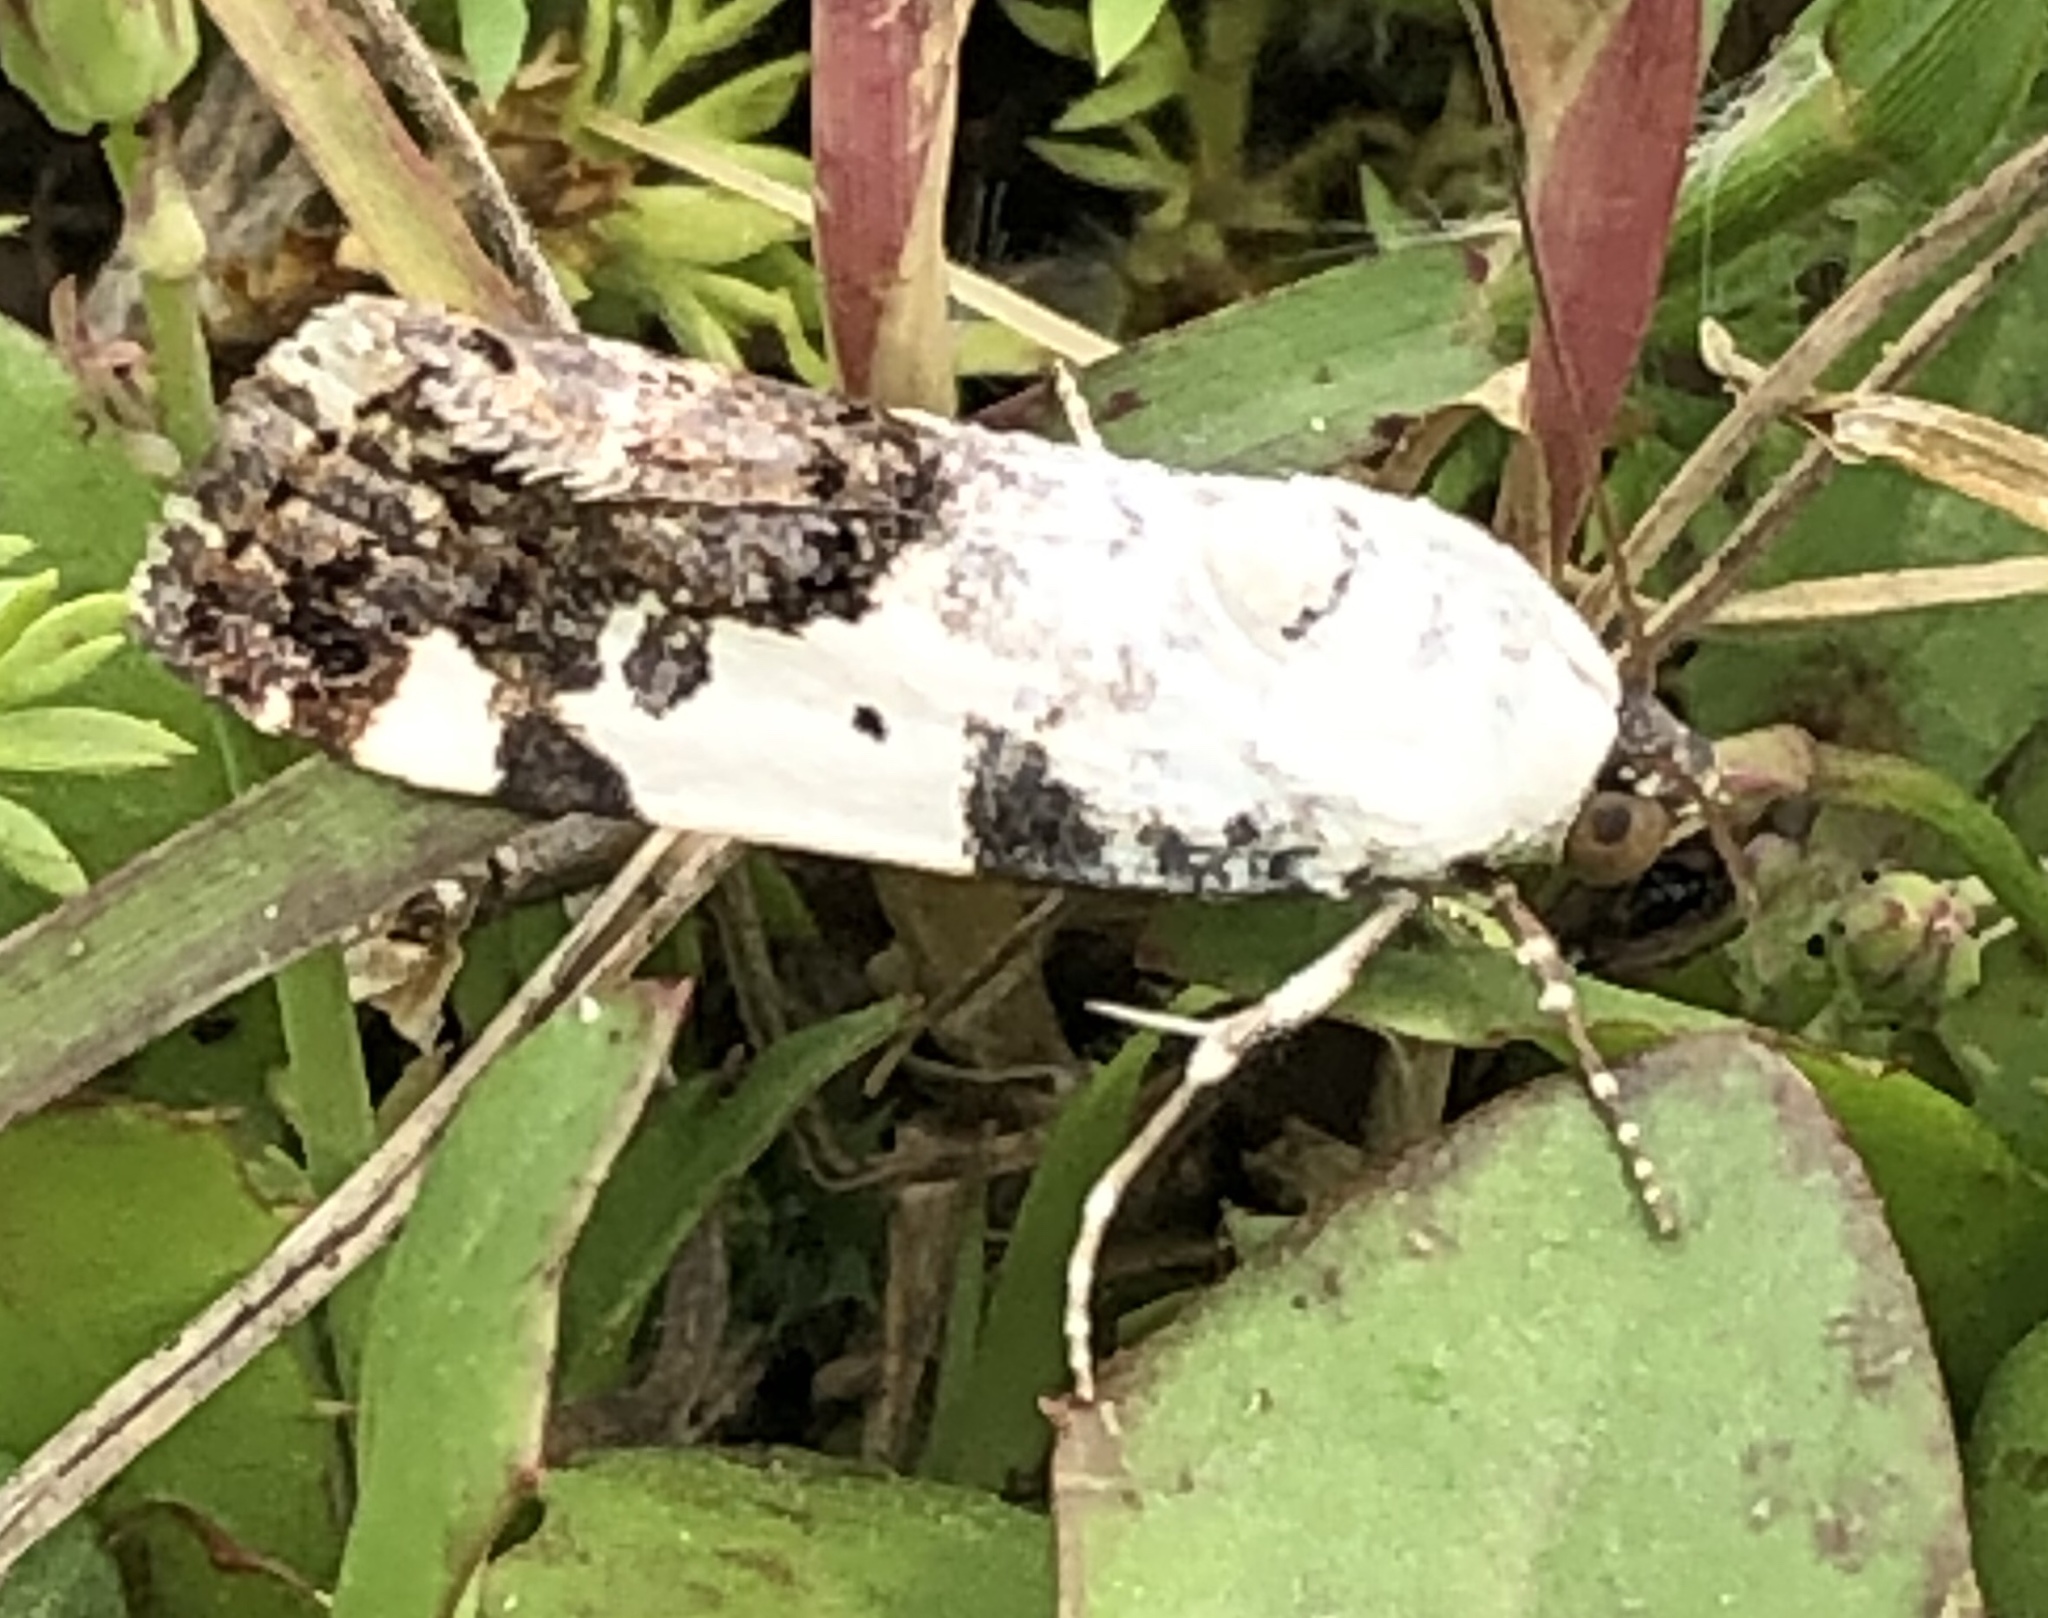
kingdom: Animalia
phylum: Arthropoda
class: Insecta
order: Lepidoptera
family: Noctuidae
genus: Acontia
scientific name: Acontia aprica
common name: Nun
